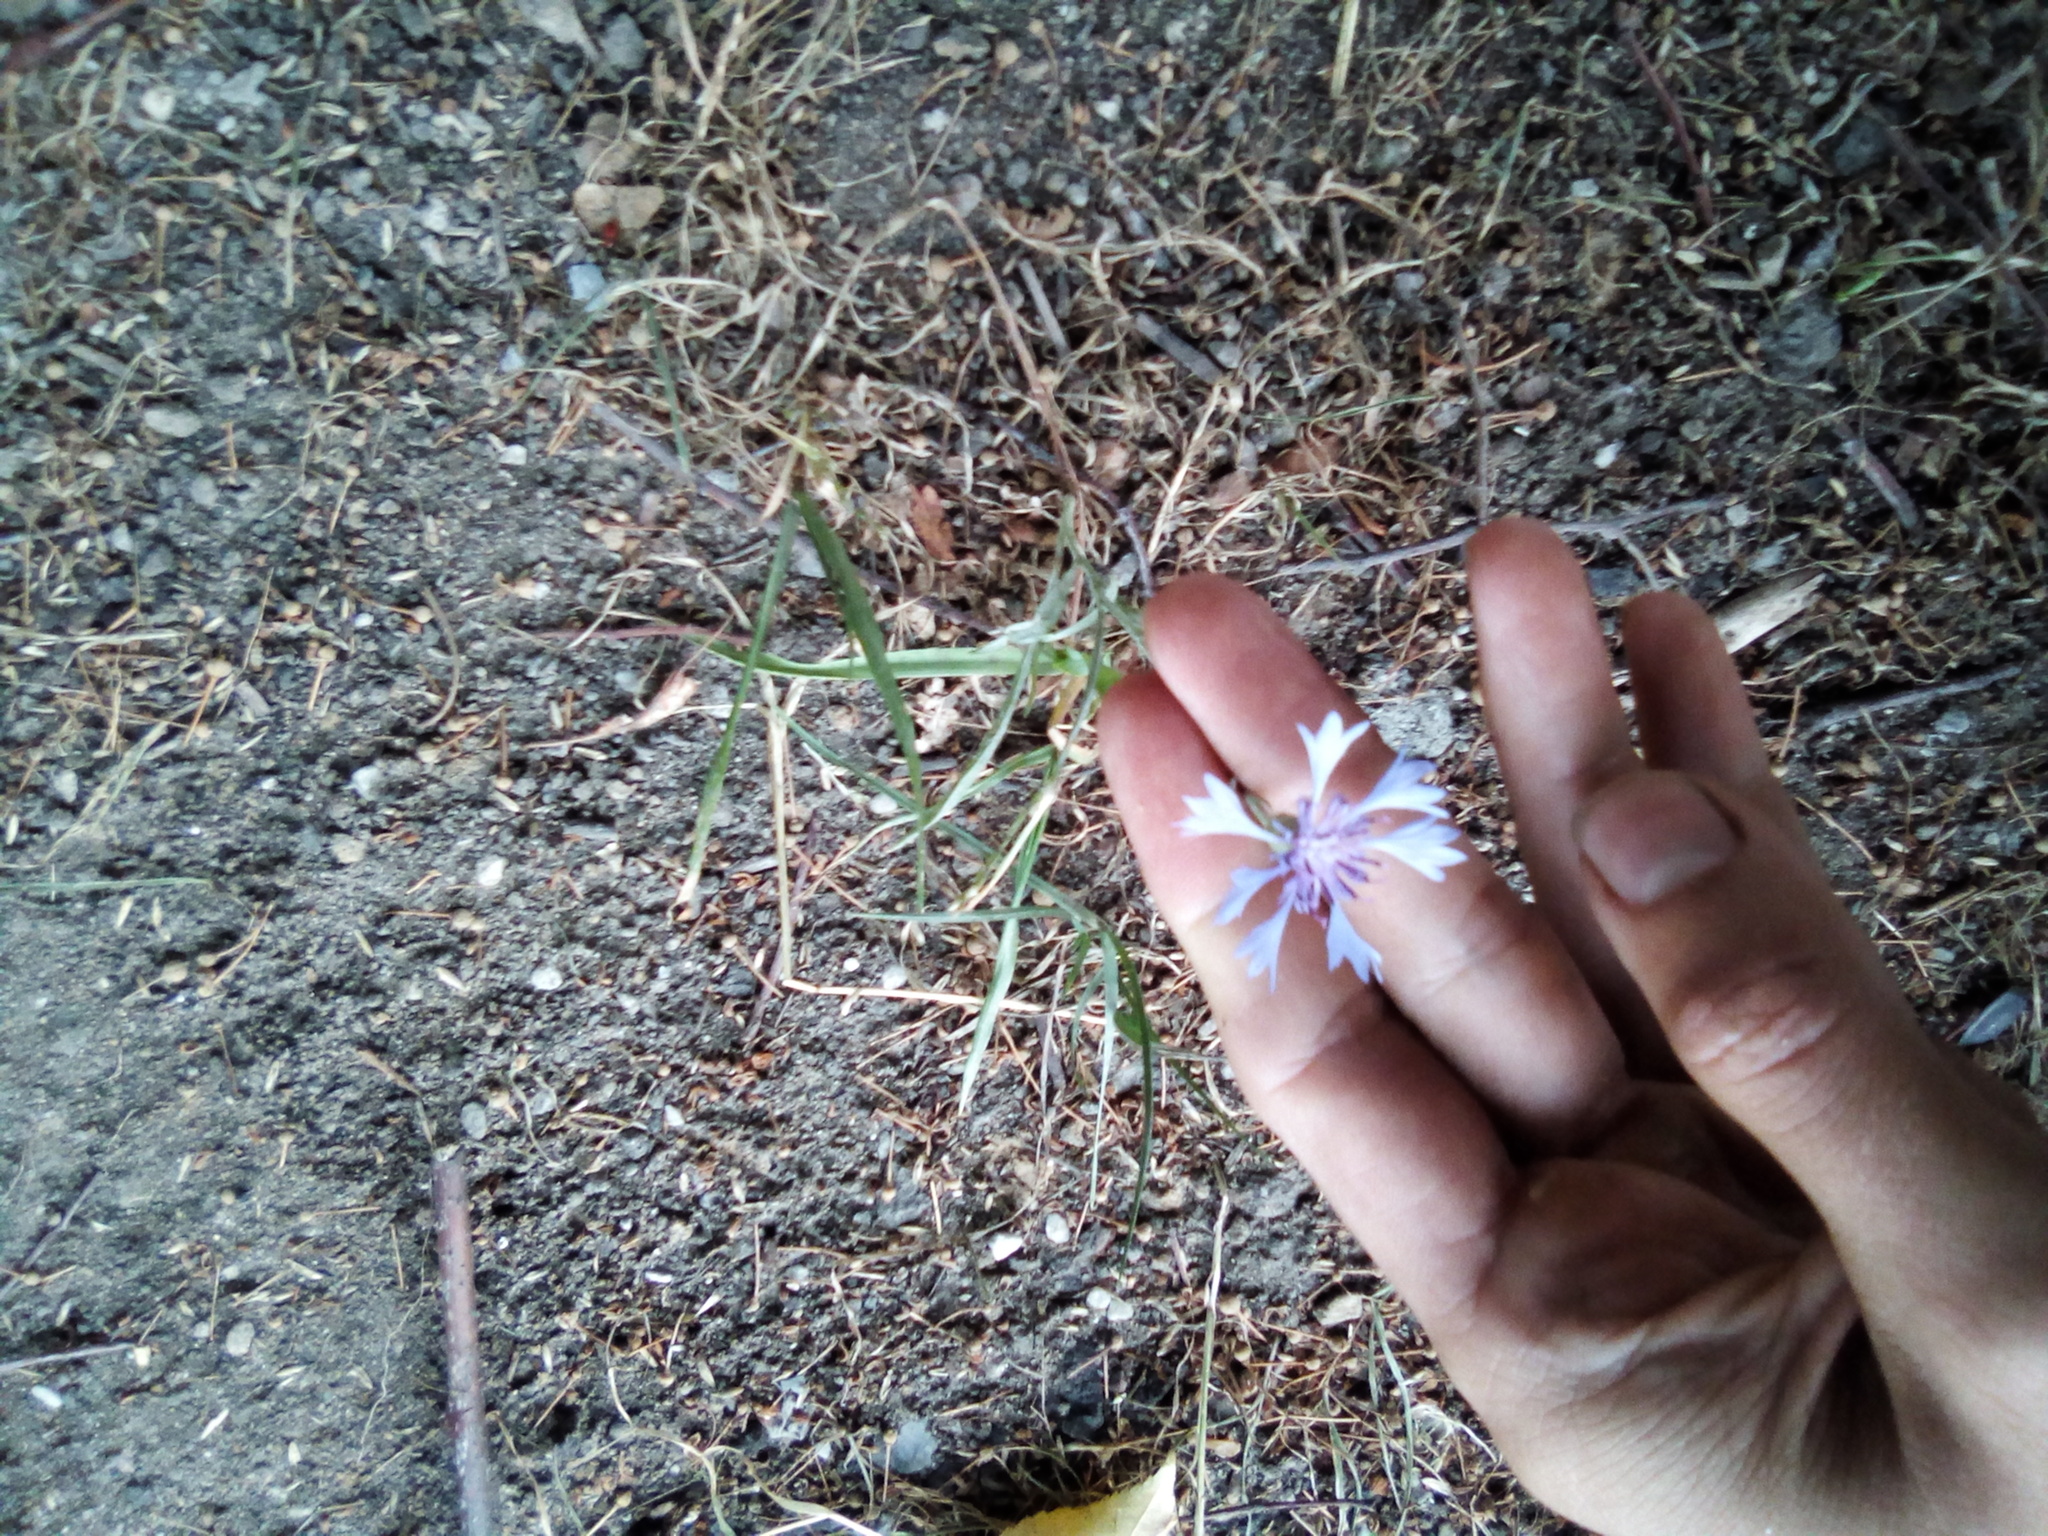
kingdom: Plantae
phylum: Tracheophyta
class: Magnoliopsida
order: Asterales
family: Asteraceae
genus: Centaurea
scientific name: Centaurea cyanus
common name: Cornflower
